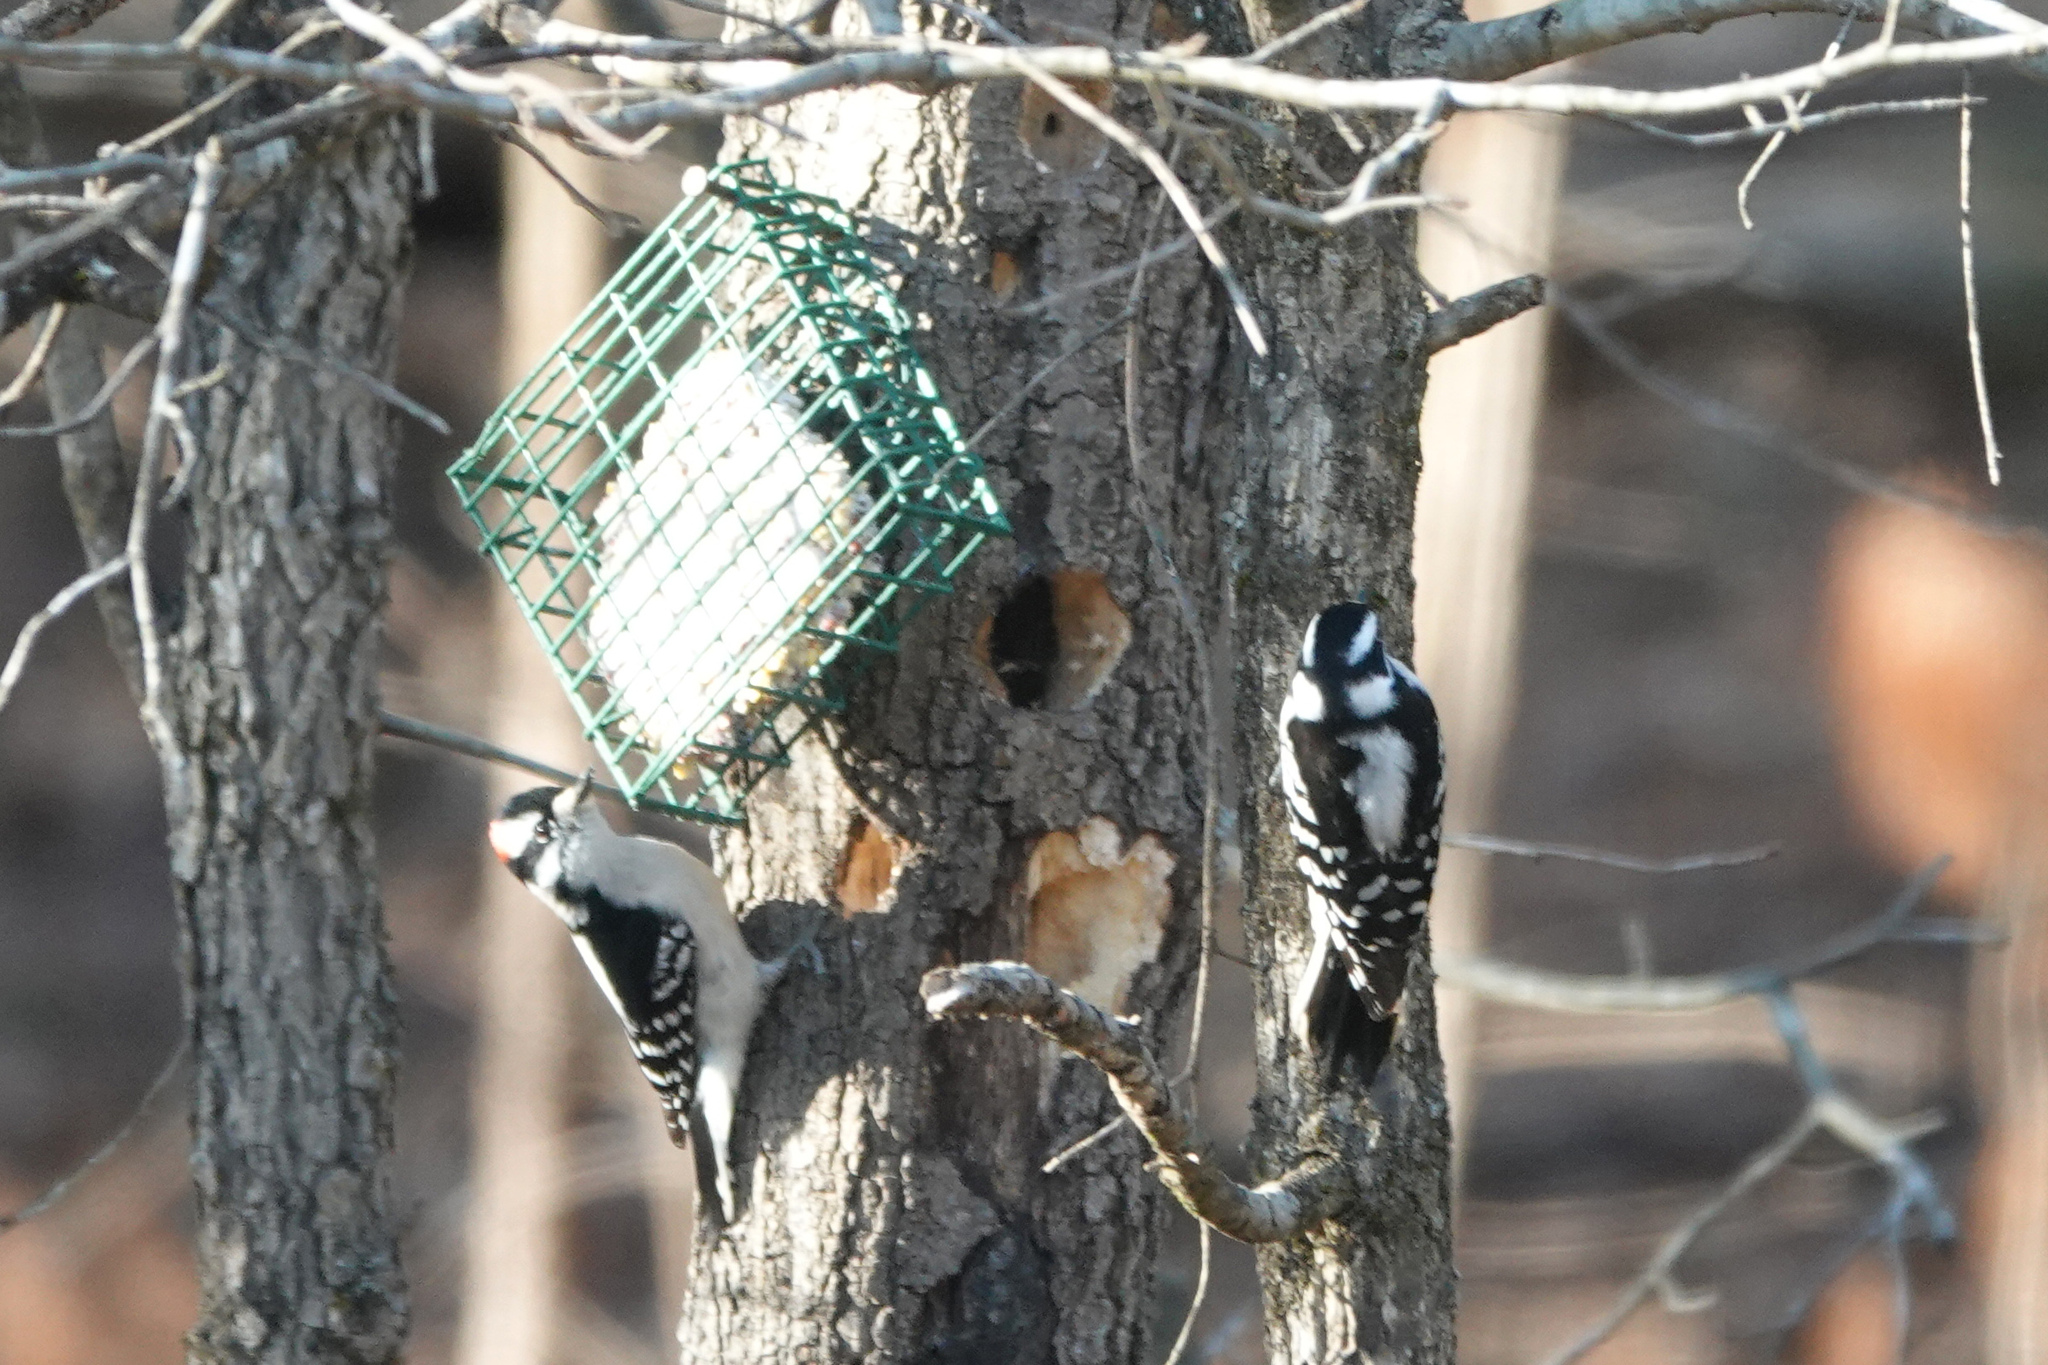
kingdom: Animalia
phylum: Chordata
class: Aves
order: Piciformes
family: Picidae
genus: Dryobates
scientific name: Dryobates pubescens
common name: Downy woodpecker
